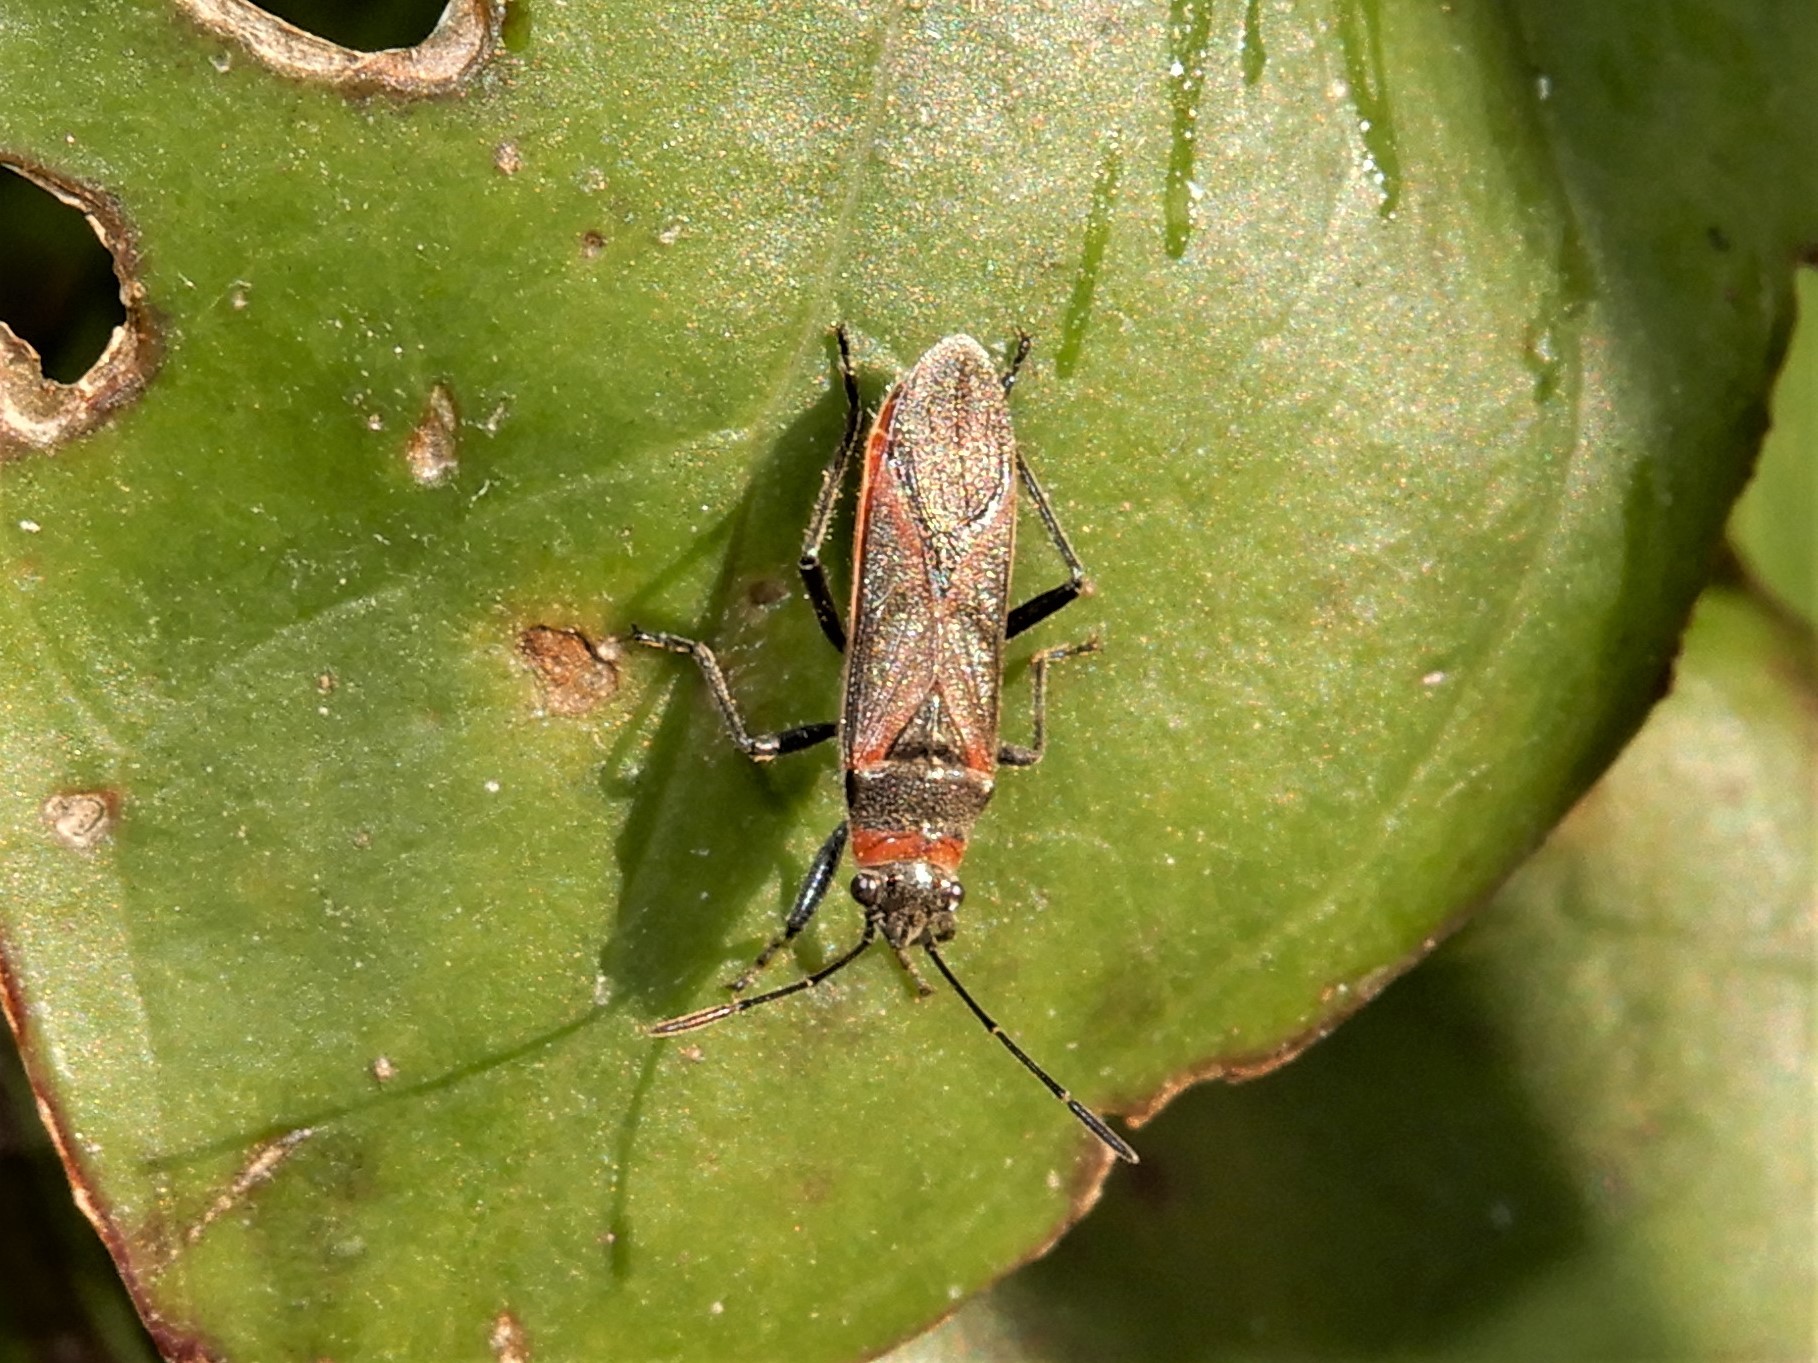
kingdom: Animalia
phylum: Arthropoda
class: Insecta
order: Hemiptera
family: Lygaeidae
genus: Arocatus
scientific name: Arocatus rusticus
